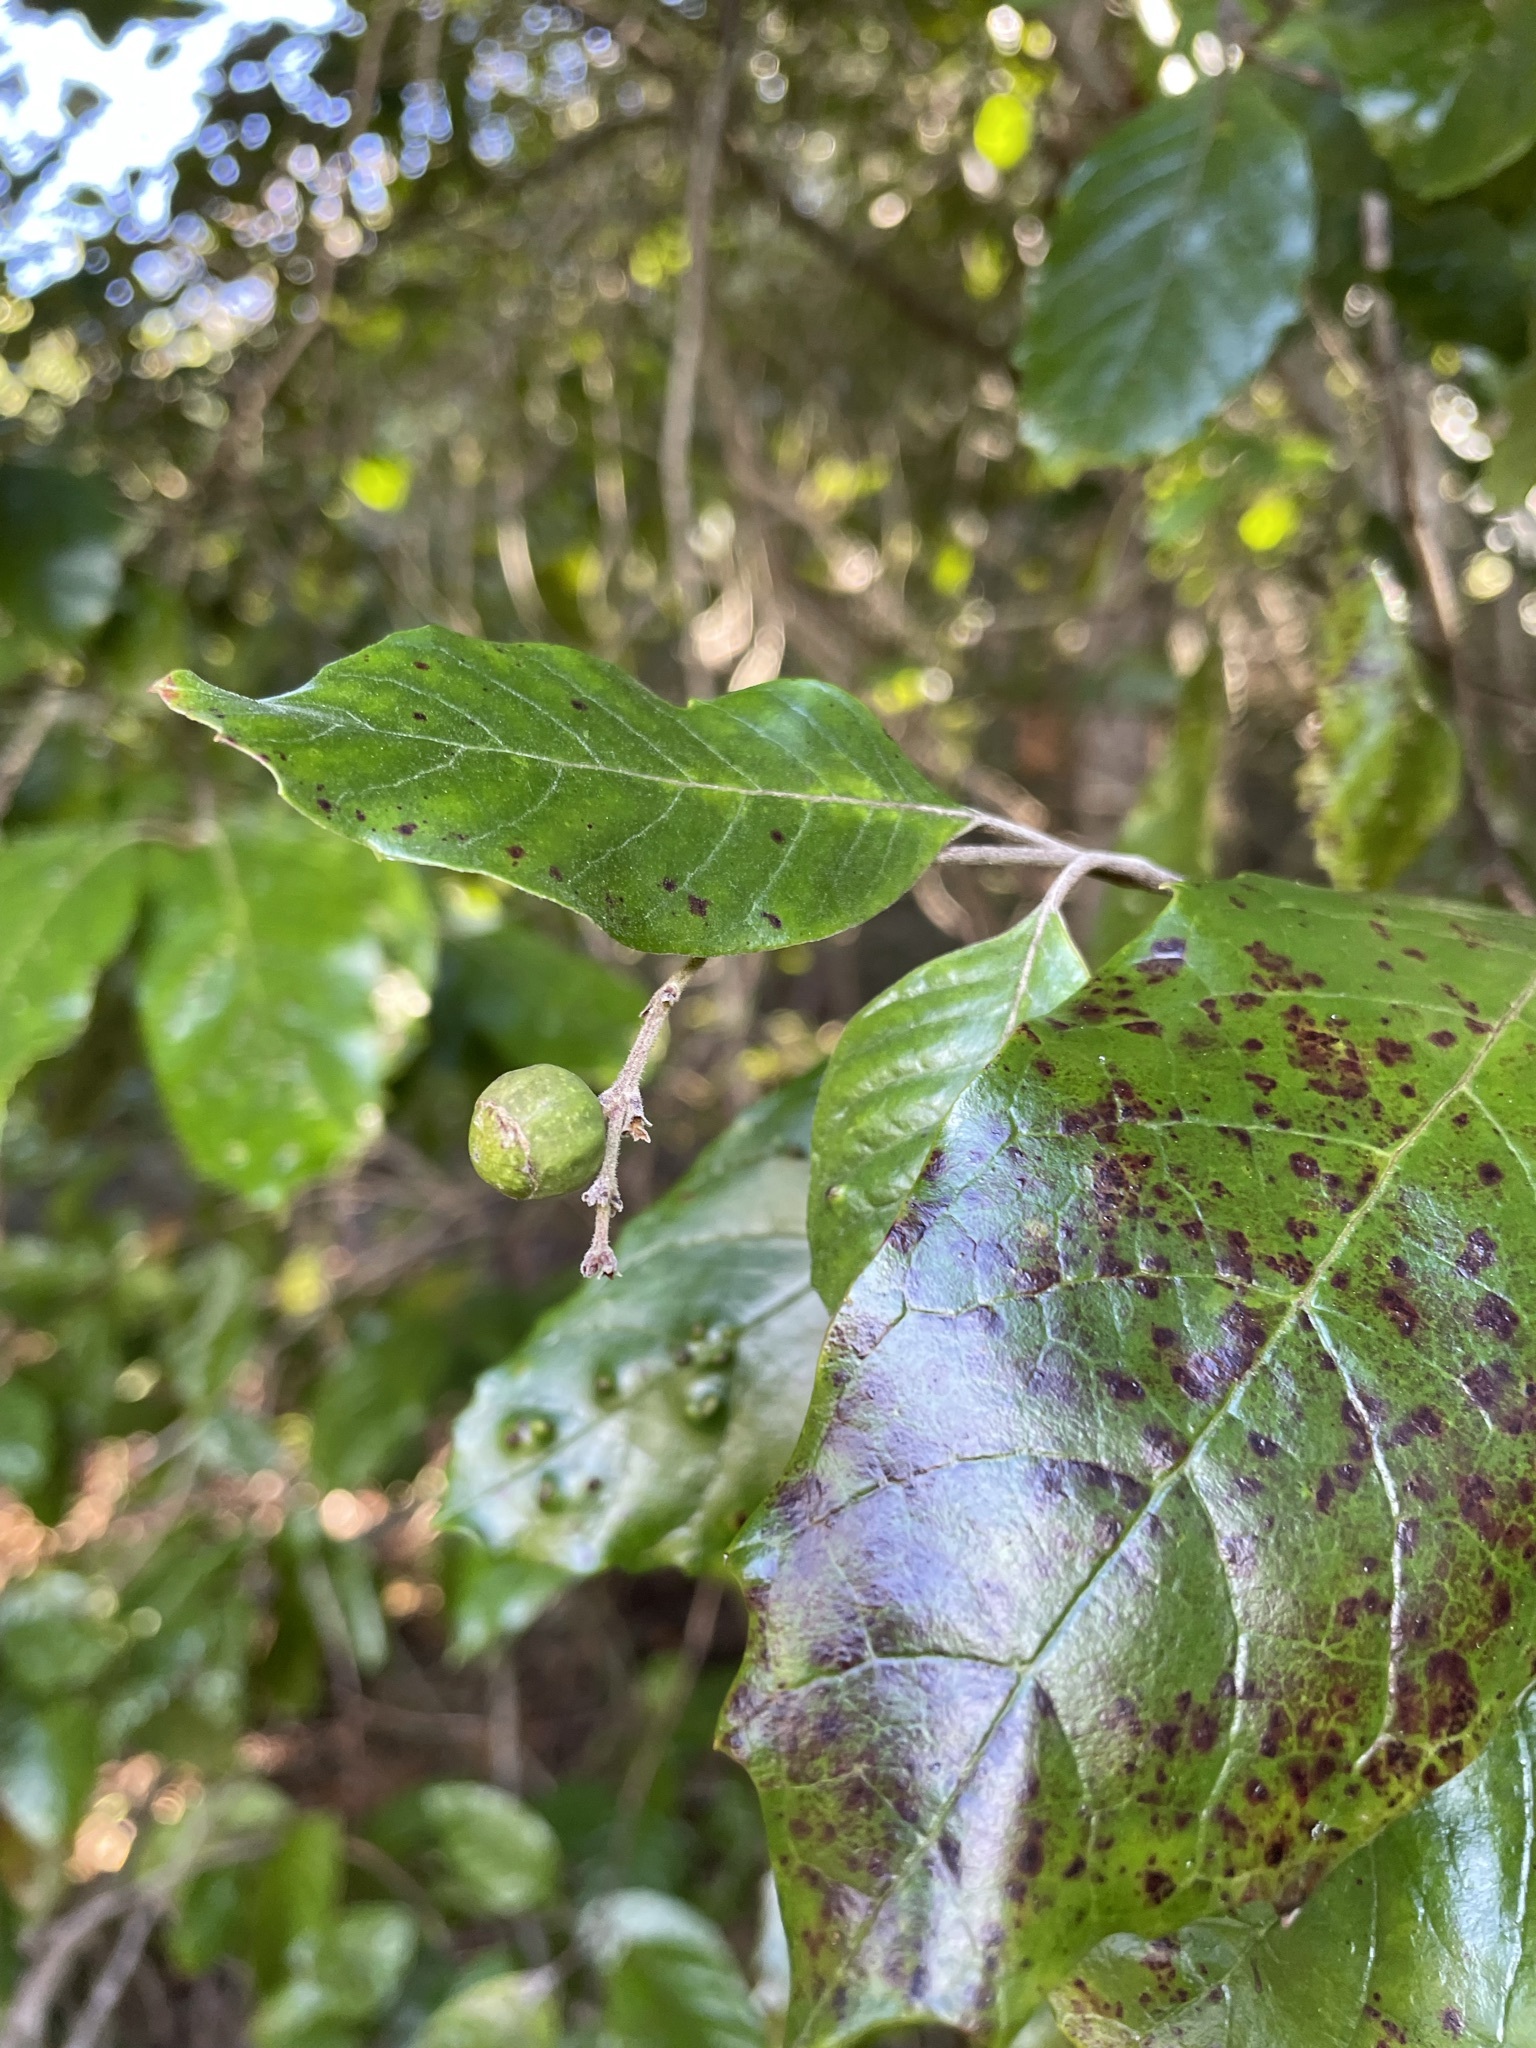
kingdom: Plantae
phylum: Tracheophyta
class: Magnoliopsida
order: Cornales
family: Curtisiaceae
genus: Curtisia
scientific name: Curtisia dentata
